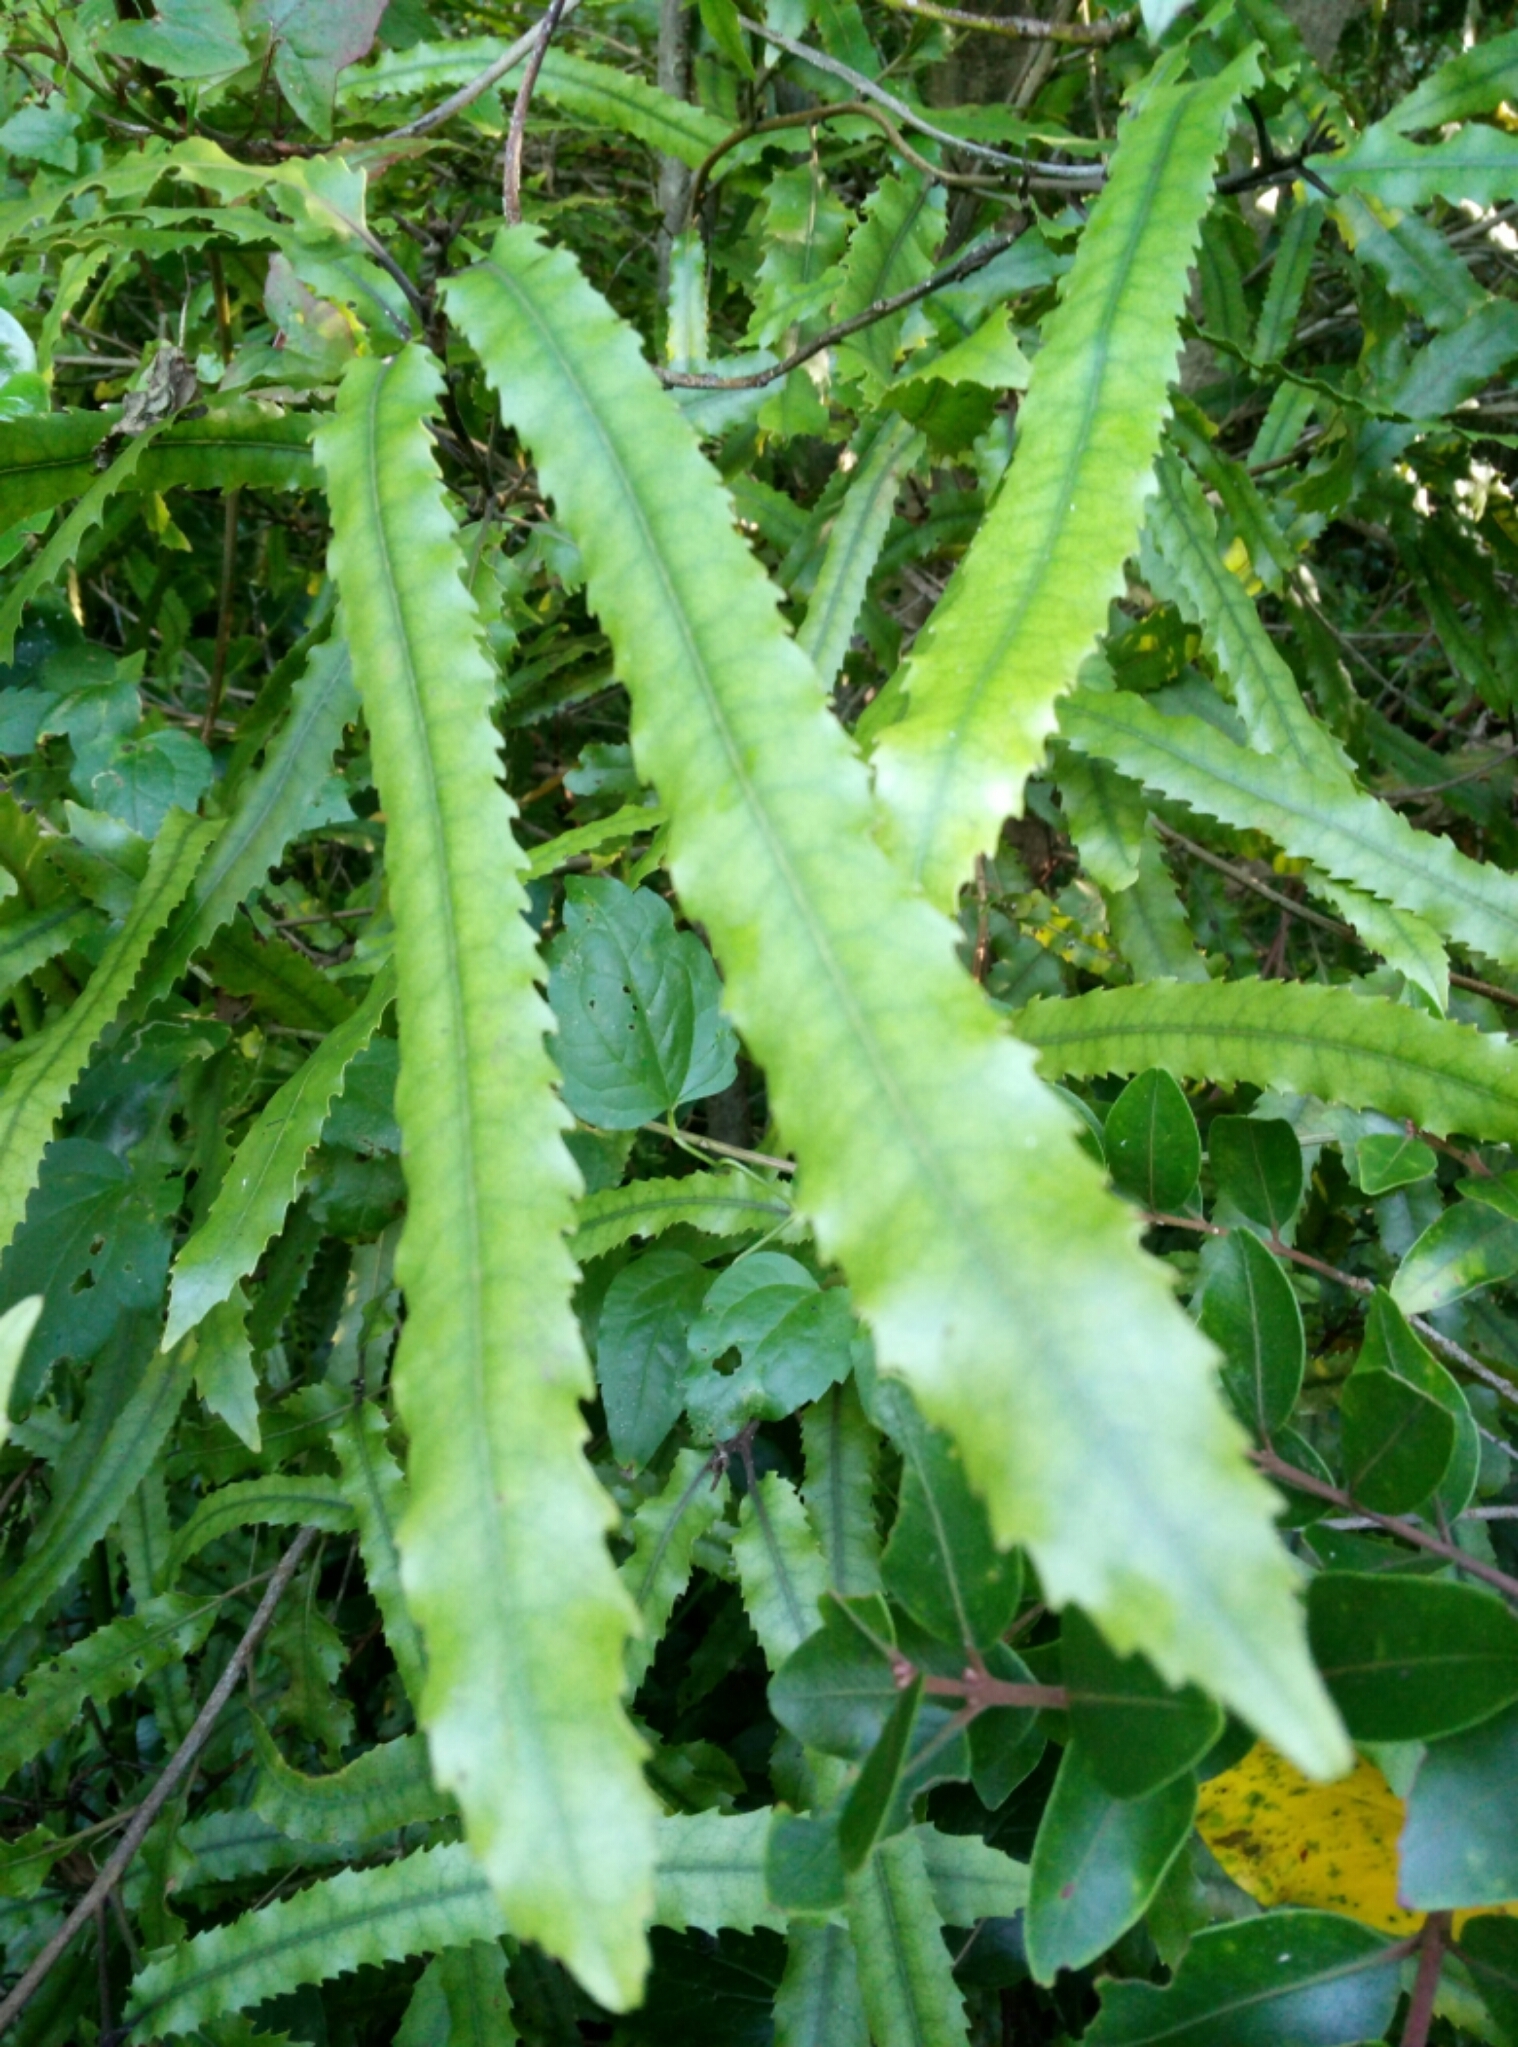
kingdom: Plantae
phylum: Tracheophyta
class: Magnoliopsida
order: Proteales
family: Proteaceae
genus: Knightia
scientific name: Knightia excelsa
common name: New zealand-honeysuckle
